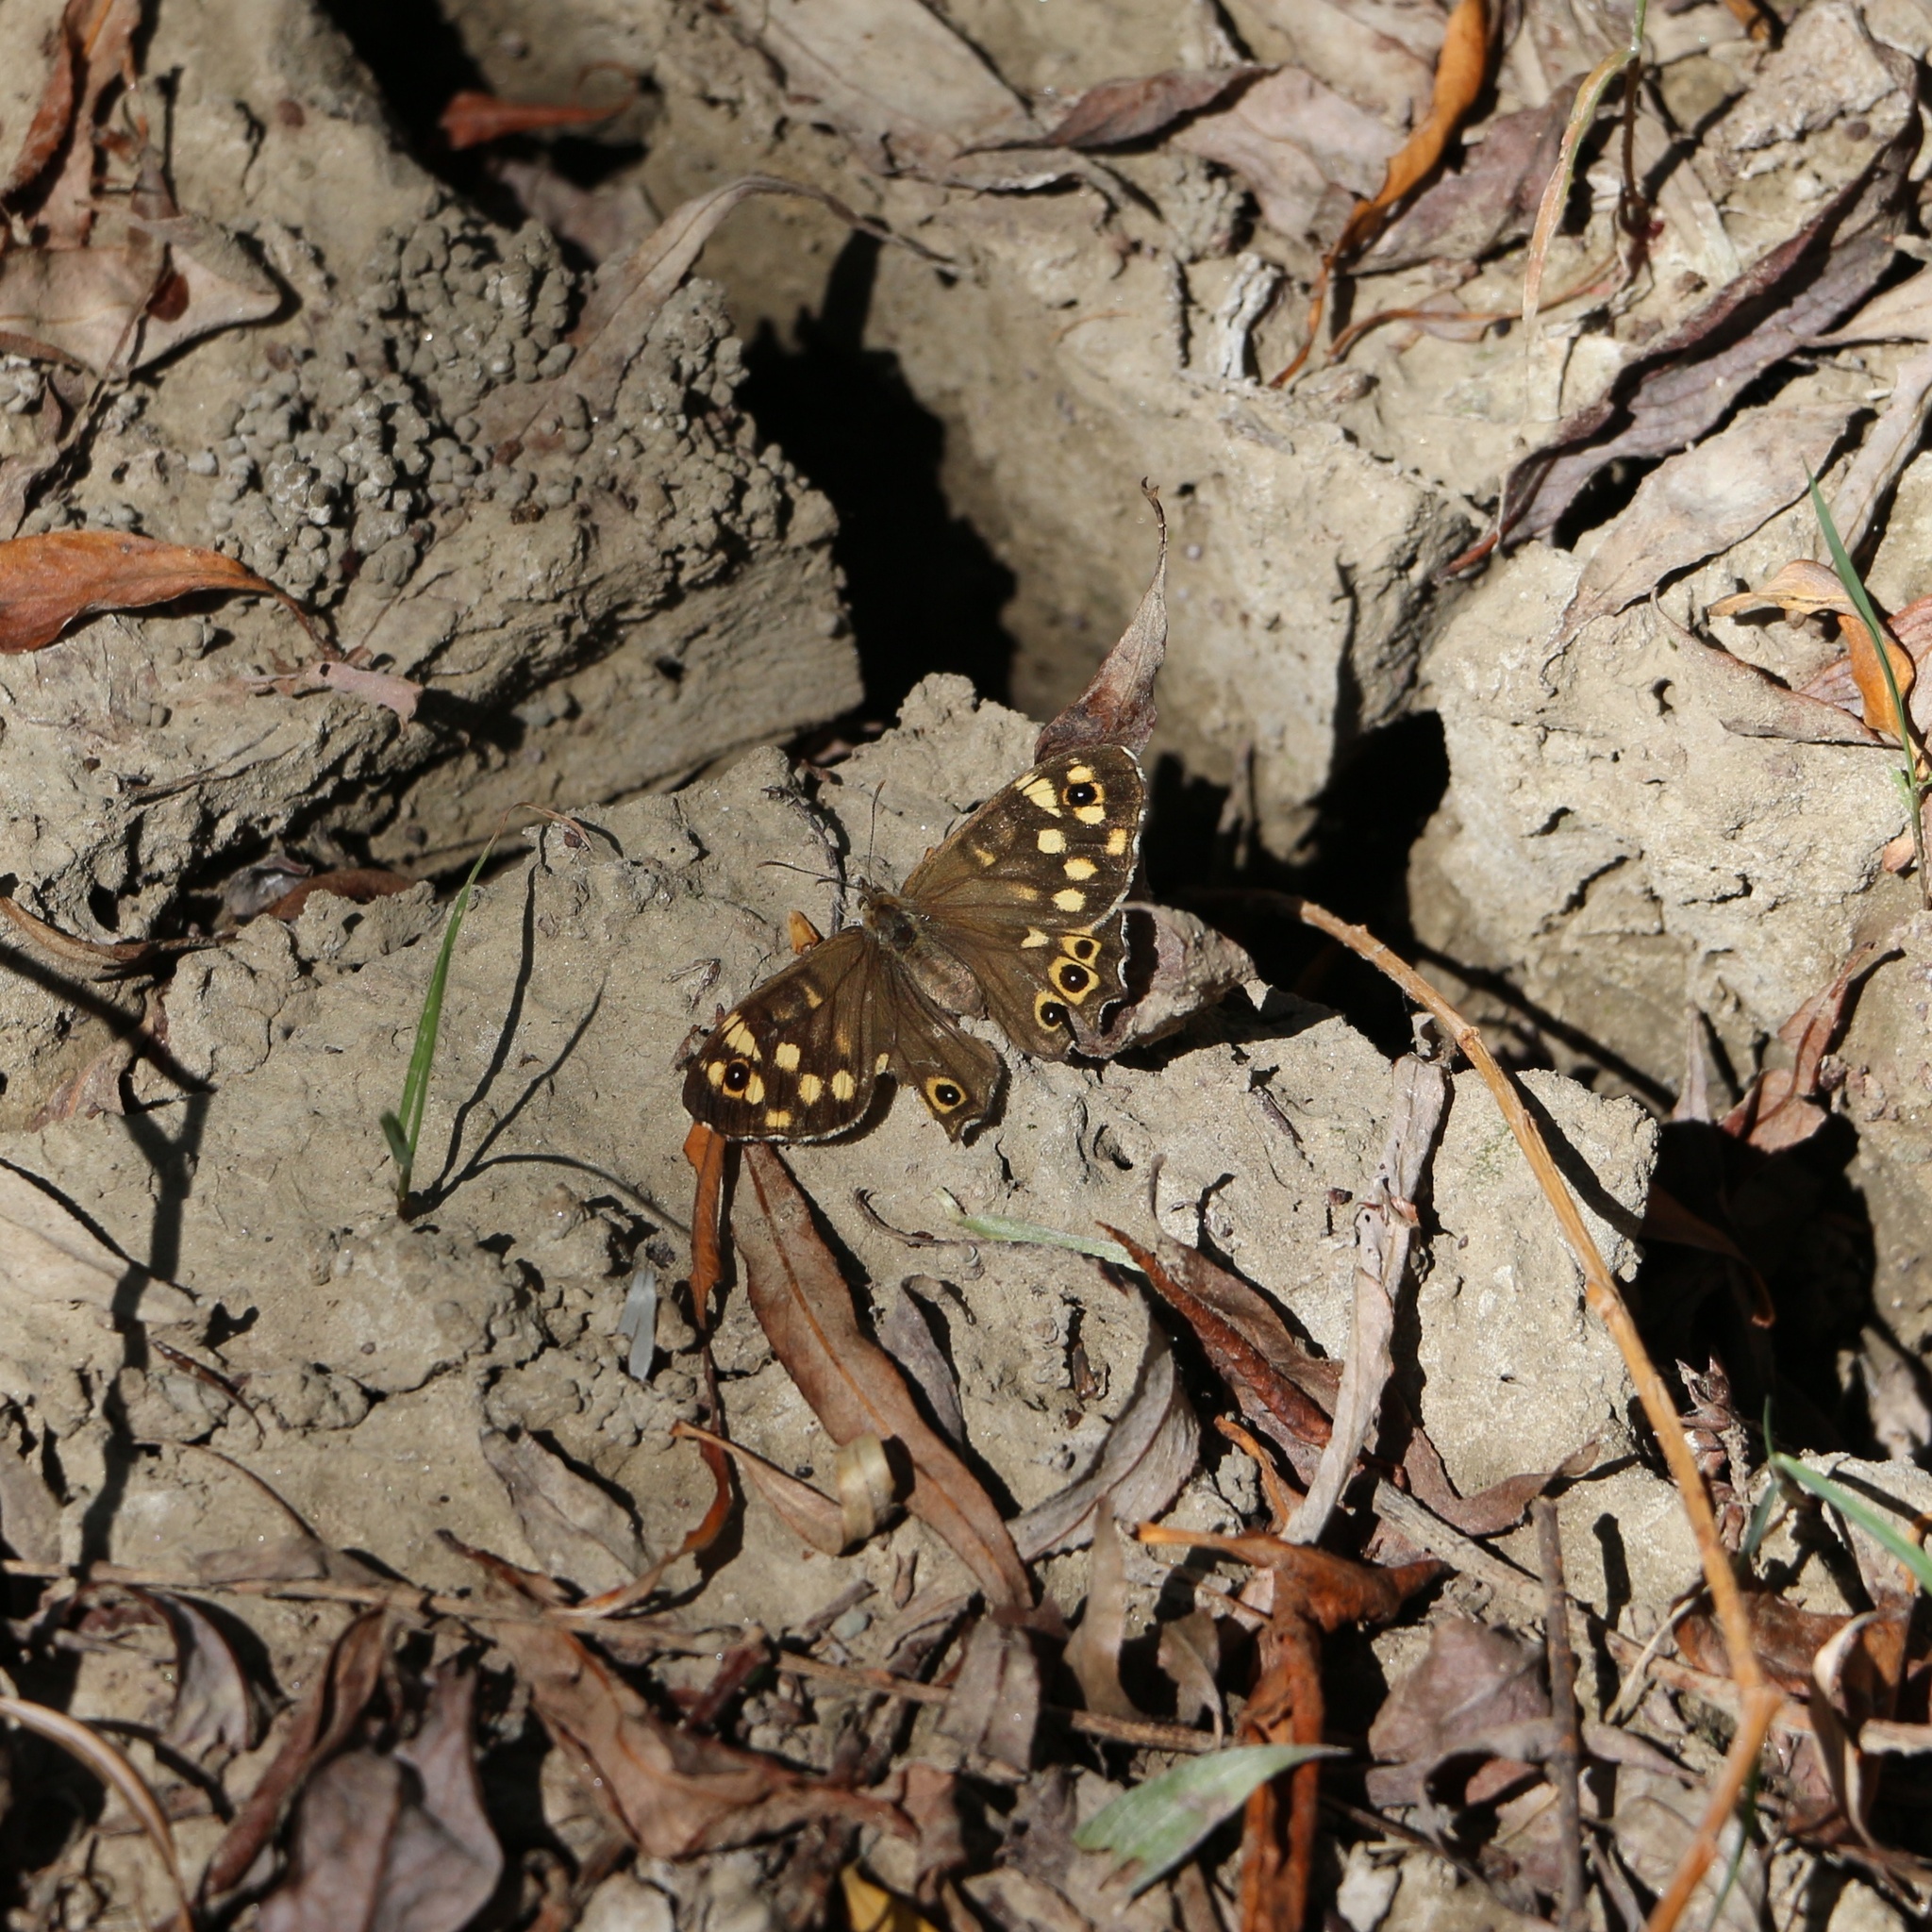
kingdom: Animalia
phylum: Arthropoda
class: Insecta
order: Lepidoptera
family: Nymphalidae
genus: Pararge
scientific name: Pararge aegeria
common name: Speckled wood
